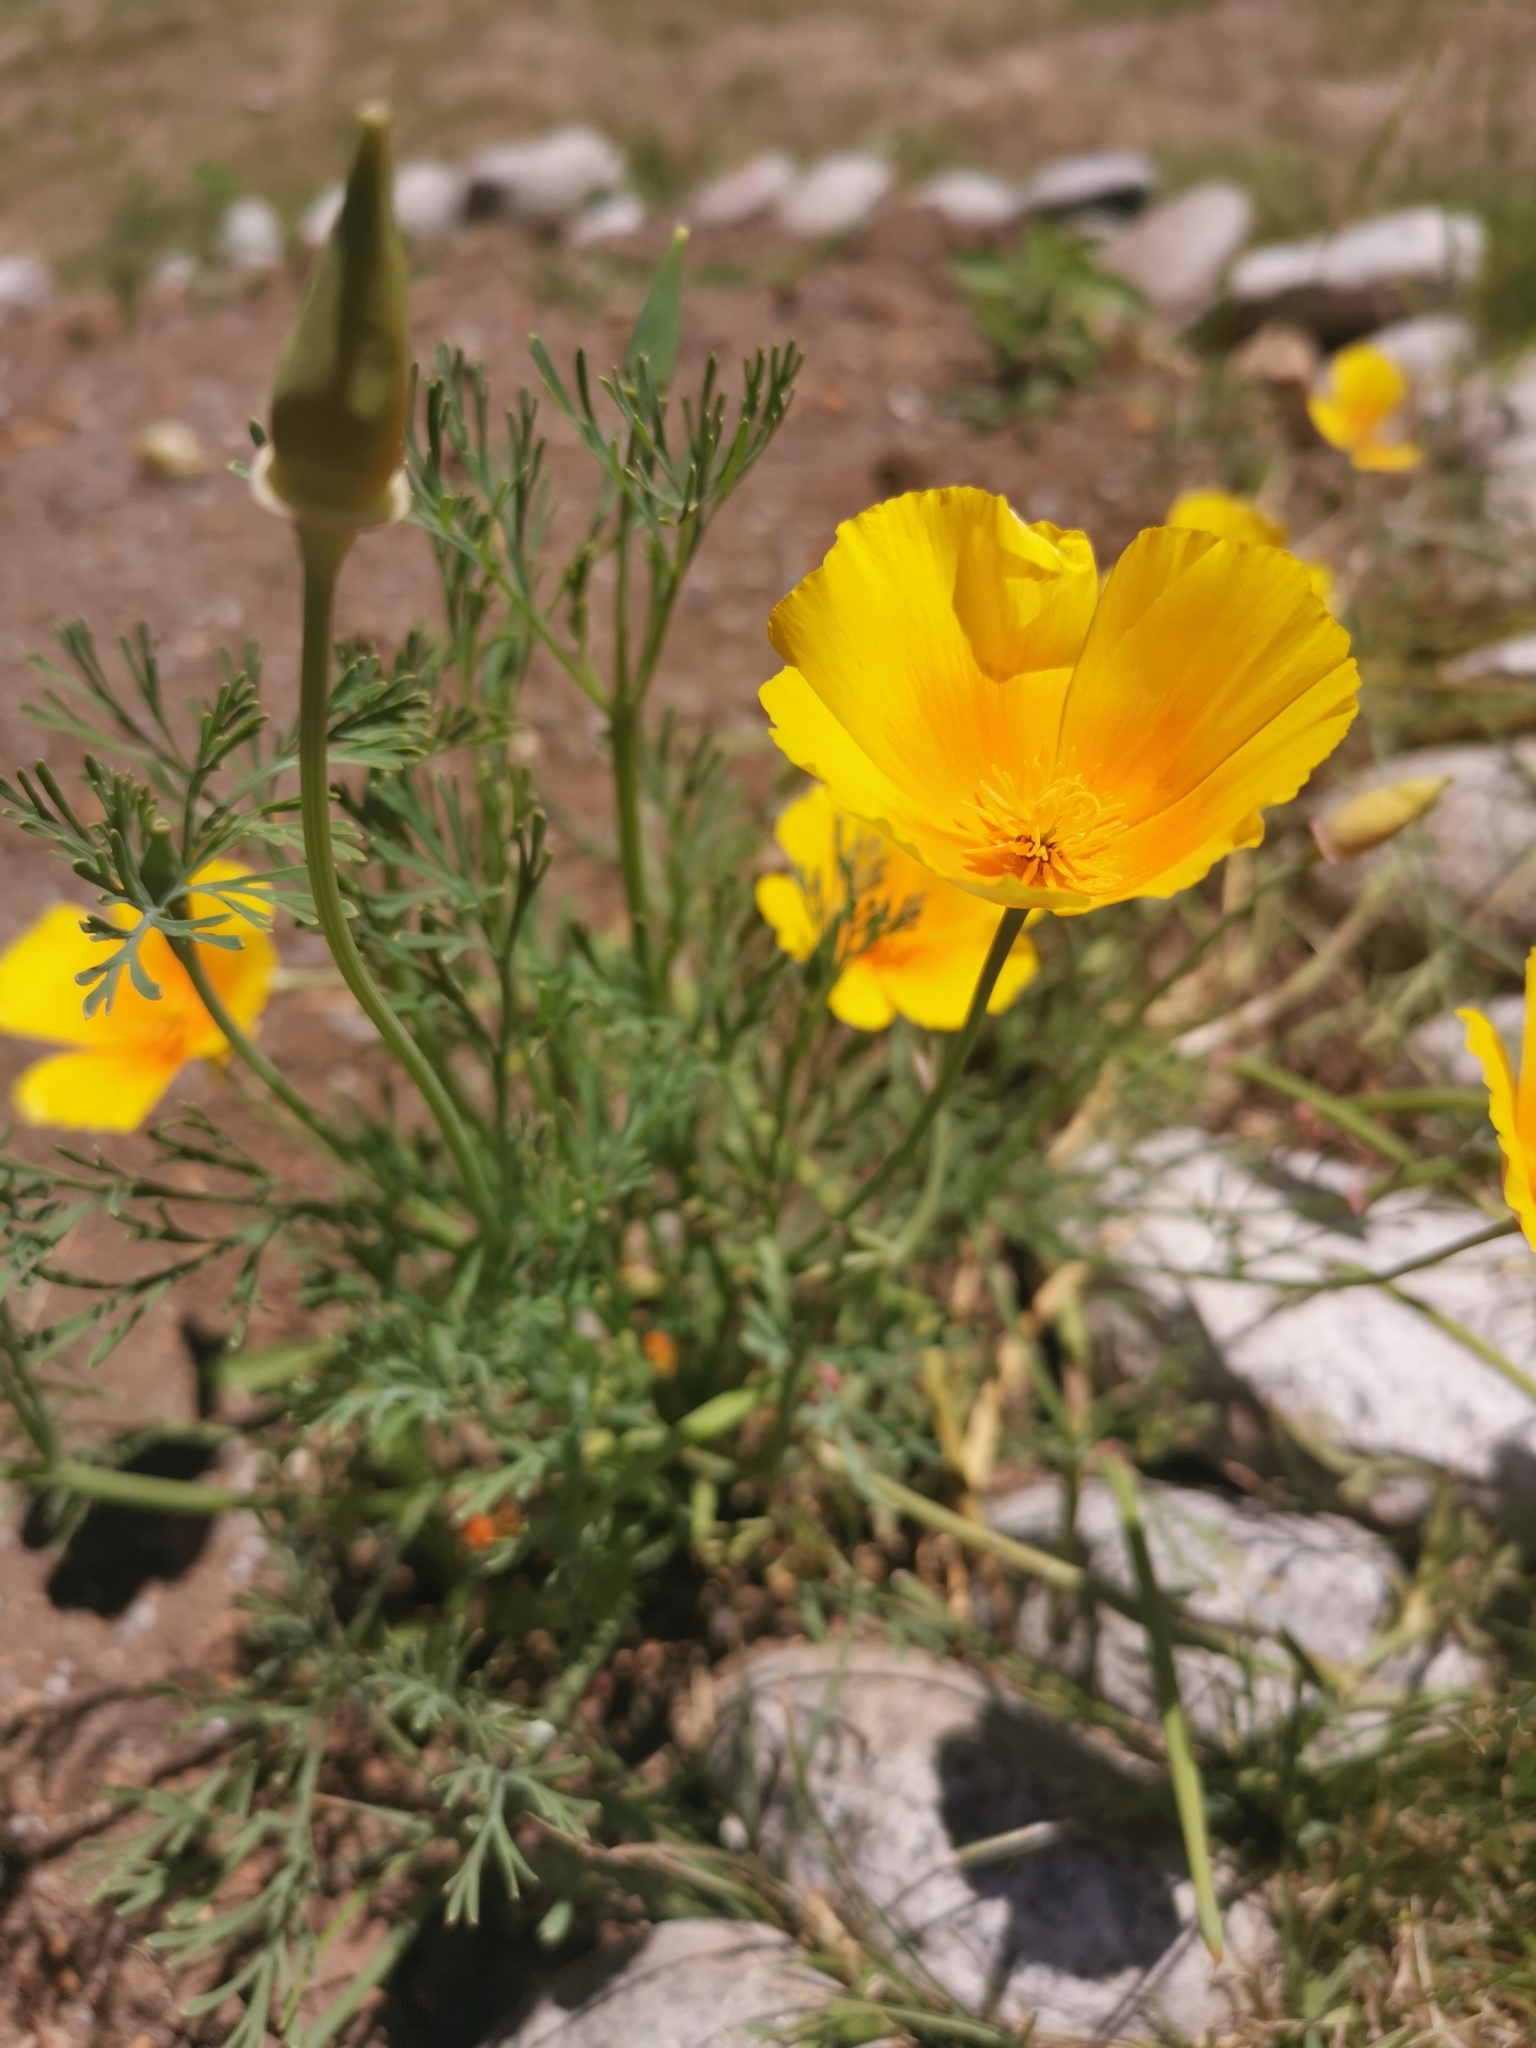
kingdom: Plantae
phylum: Tracheophyta
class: Magnoliopsida
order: Ranunculales
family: Papaveraceae
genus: Eschscholzia
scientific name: Eschscholzia californica
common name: California poppy
